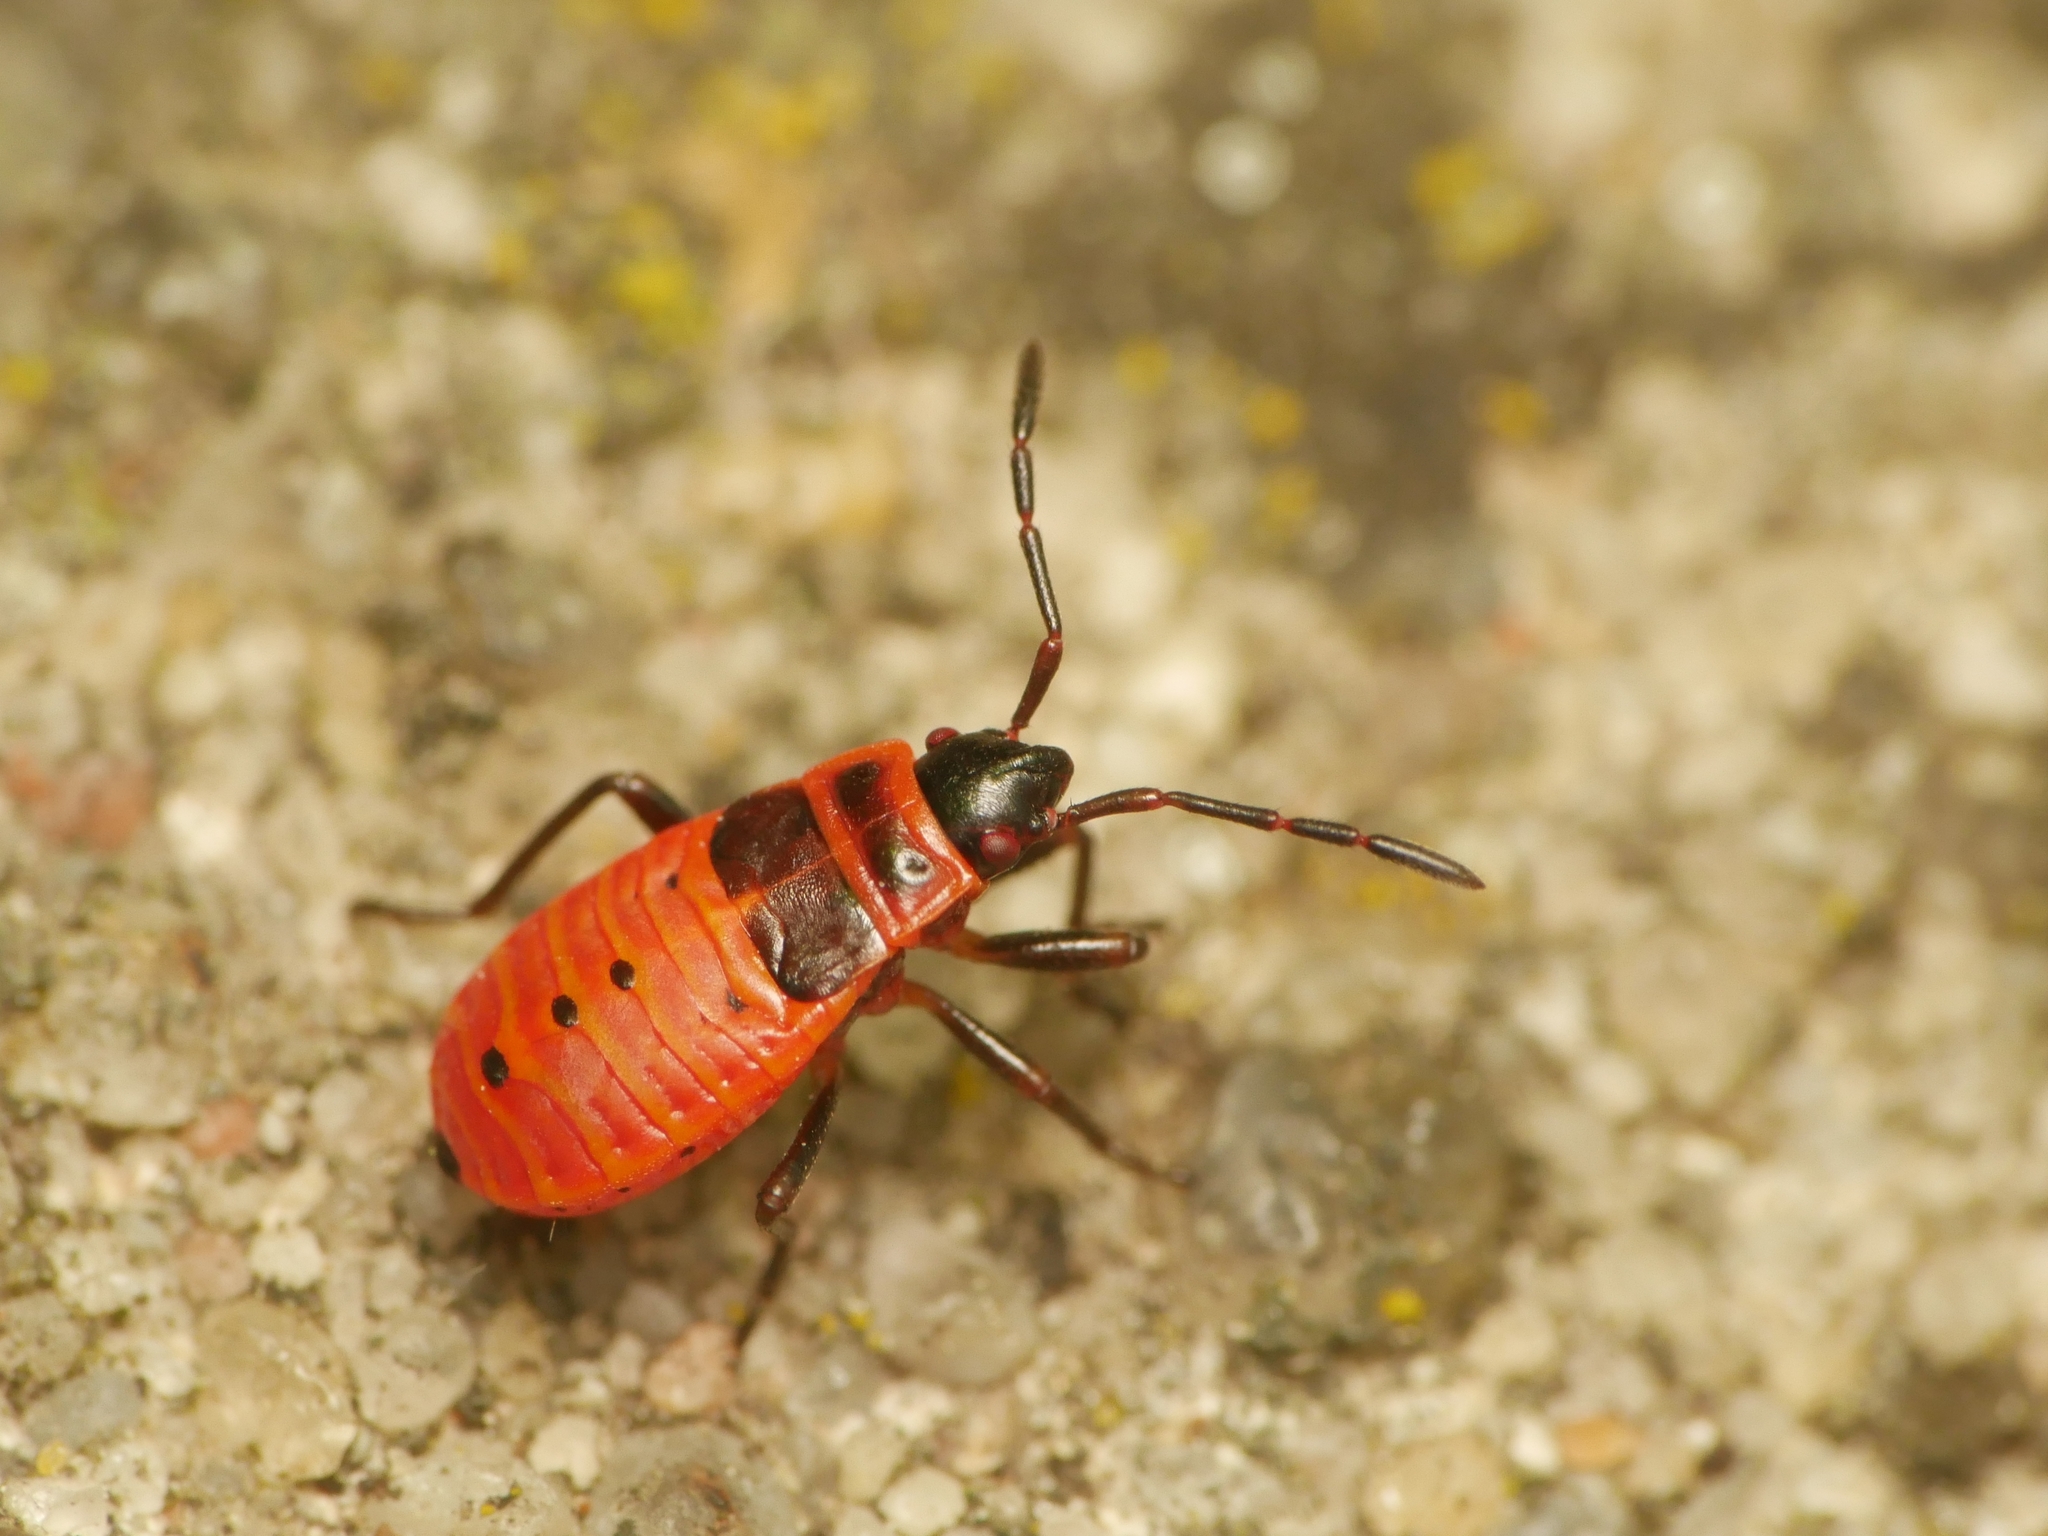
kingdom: Animalia
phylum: Arthropoda
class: Insecta
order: Hemiptera
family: Pyrrhocoridae
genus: Pyrrhocoris
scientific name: Pyrrhocoris apterus
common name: Firebug
